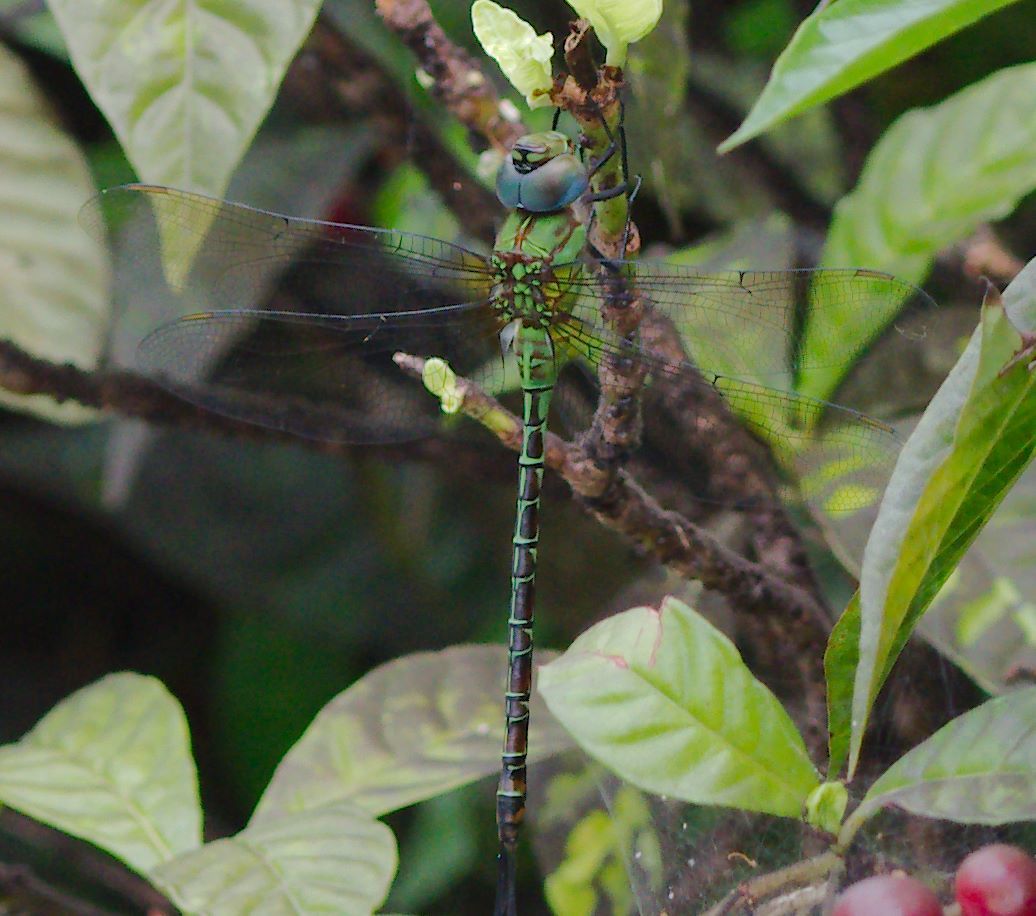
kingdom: Animalia
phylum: Arthropoda
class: Insecta
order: Odonata
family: Aeshnidae
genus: Coryphaeschna
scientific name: Coryphaeschna adnexa
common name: Blue-faced darner
